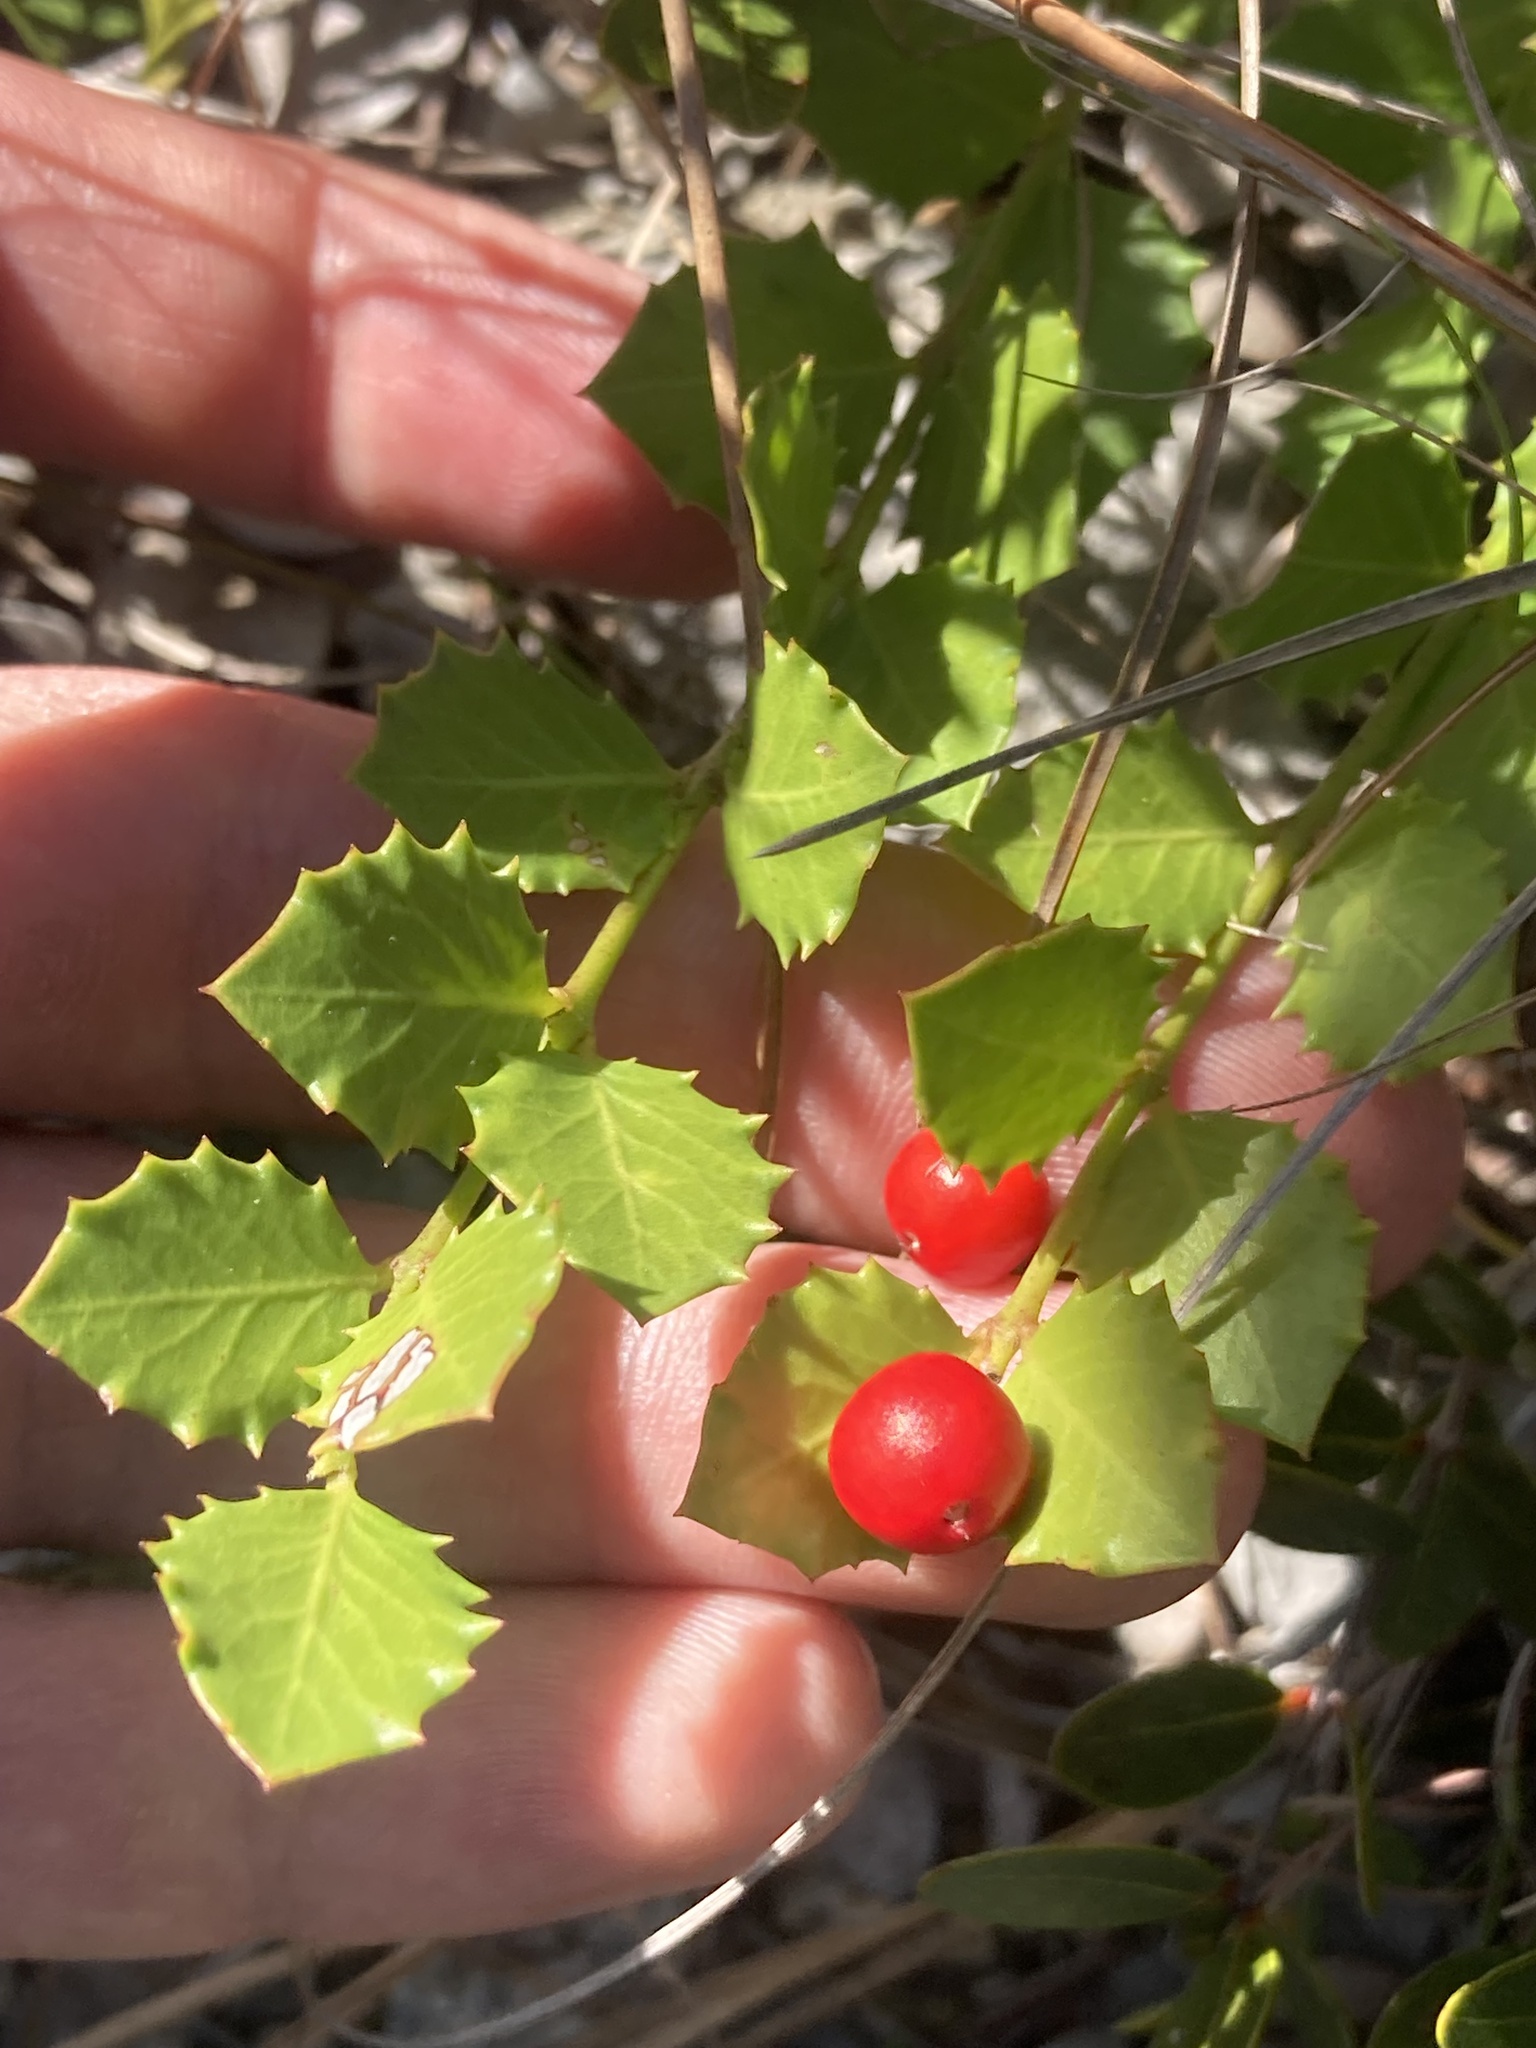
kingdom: Plantae
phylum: Tracheophyta
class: Magnoliopsida
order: Celastrales
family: Celastraceae
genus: Crossopetalum
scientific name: Crossopetalum ilicifolium
